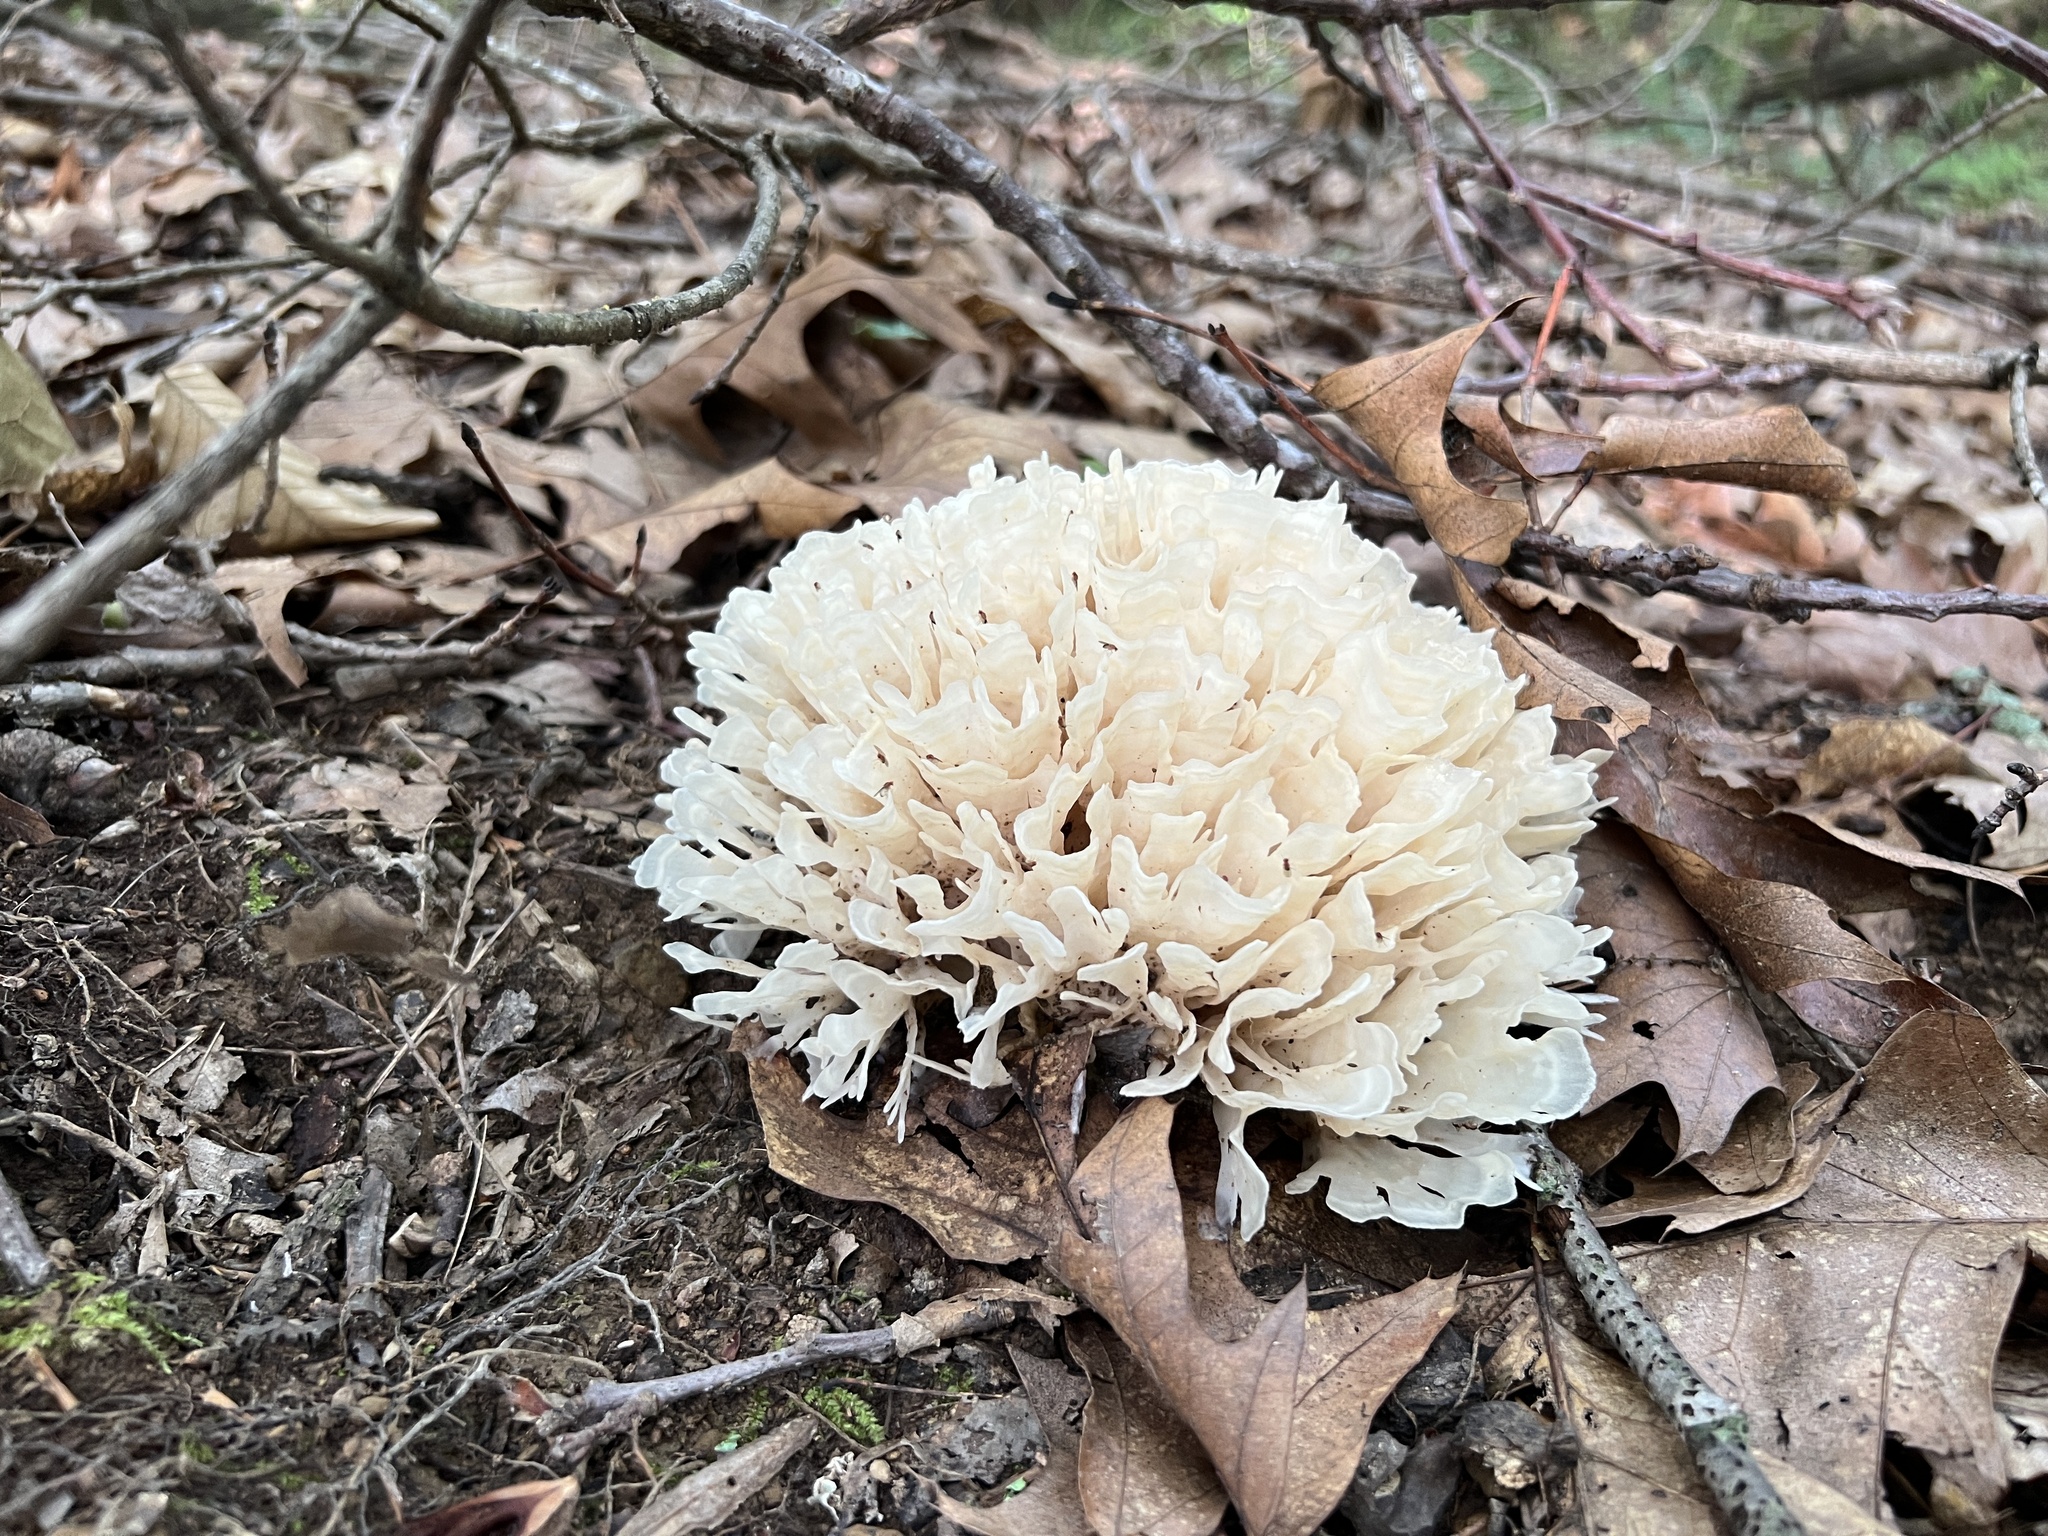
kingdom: Fungi
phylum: Basidiomycota
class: Agaricomycetes
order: Polyporales
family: Sparassidaceae
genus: Sparassis
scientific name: Sparassis spathulata
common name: Eastern cauliflower mushroom
